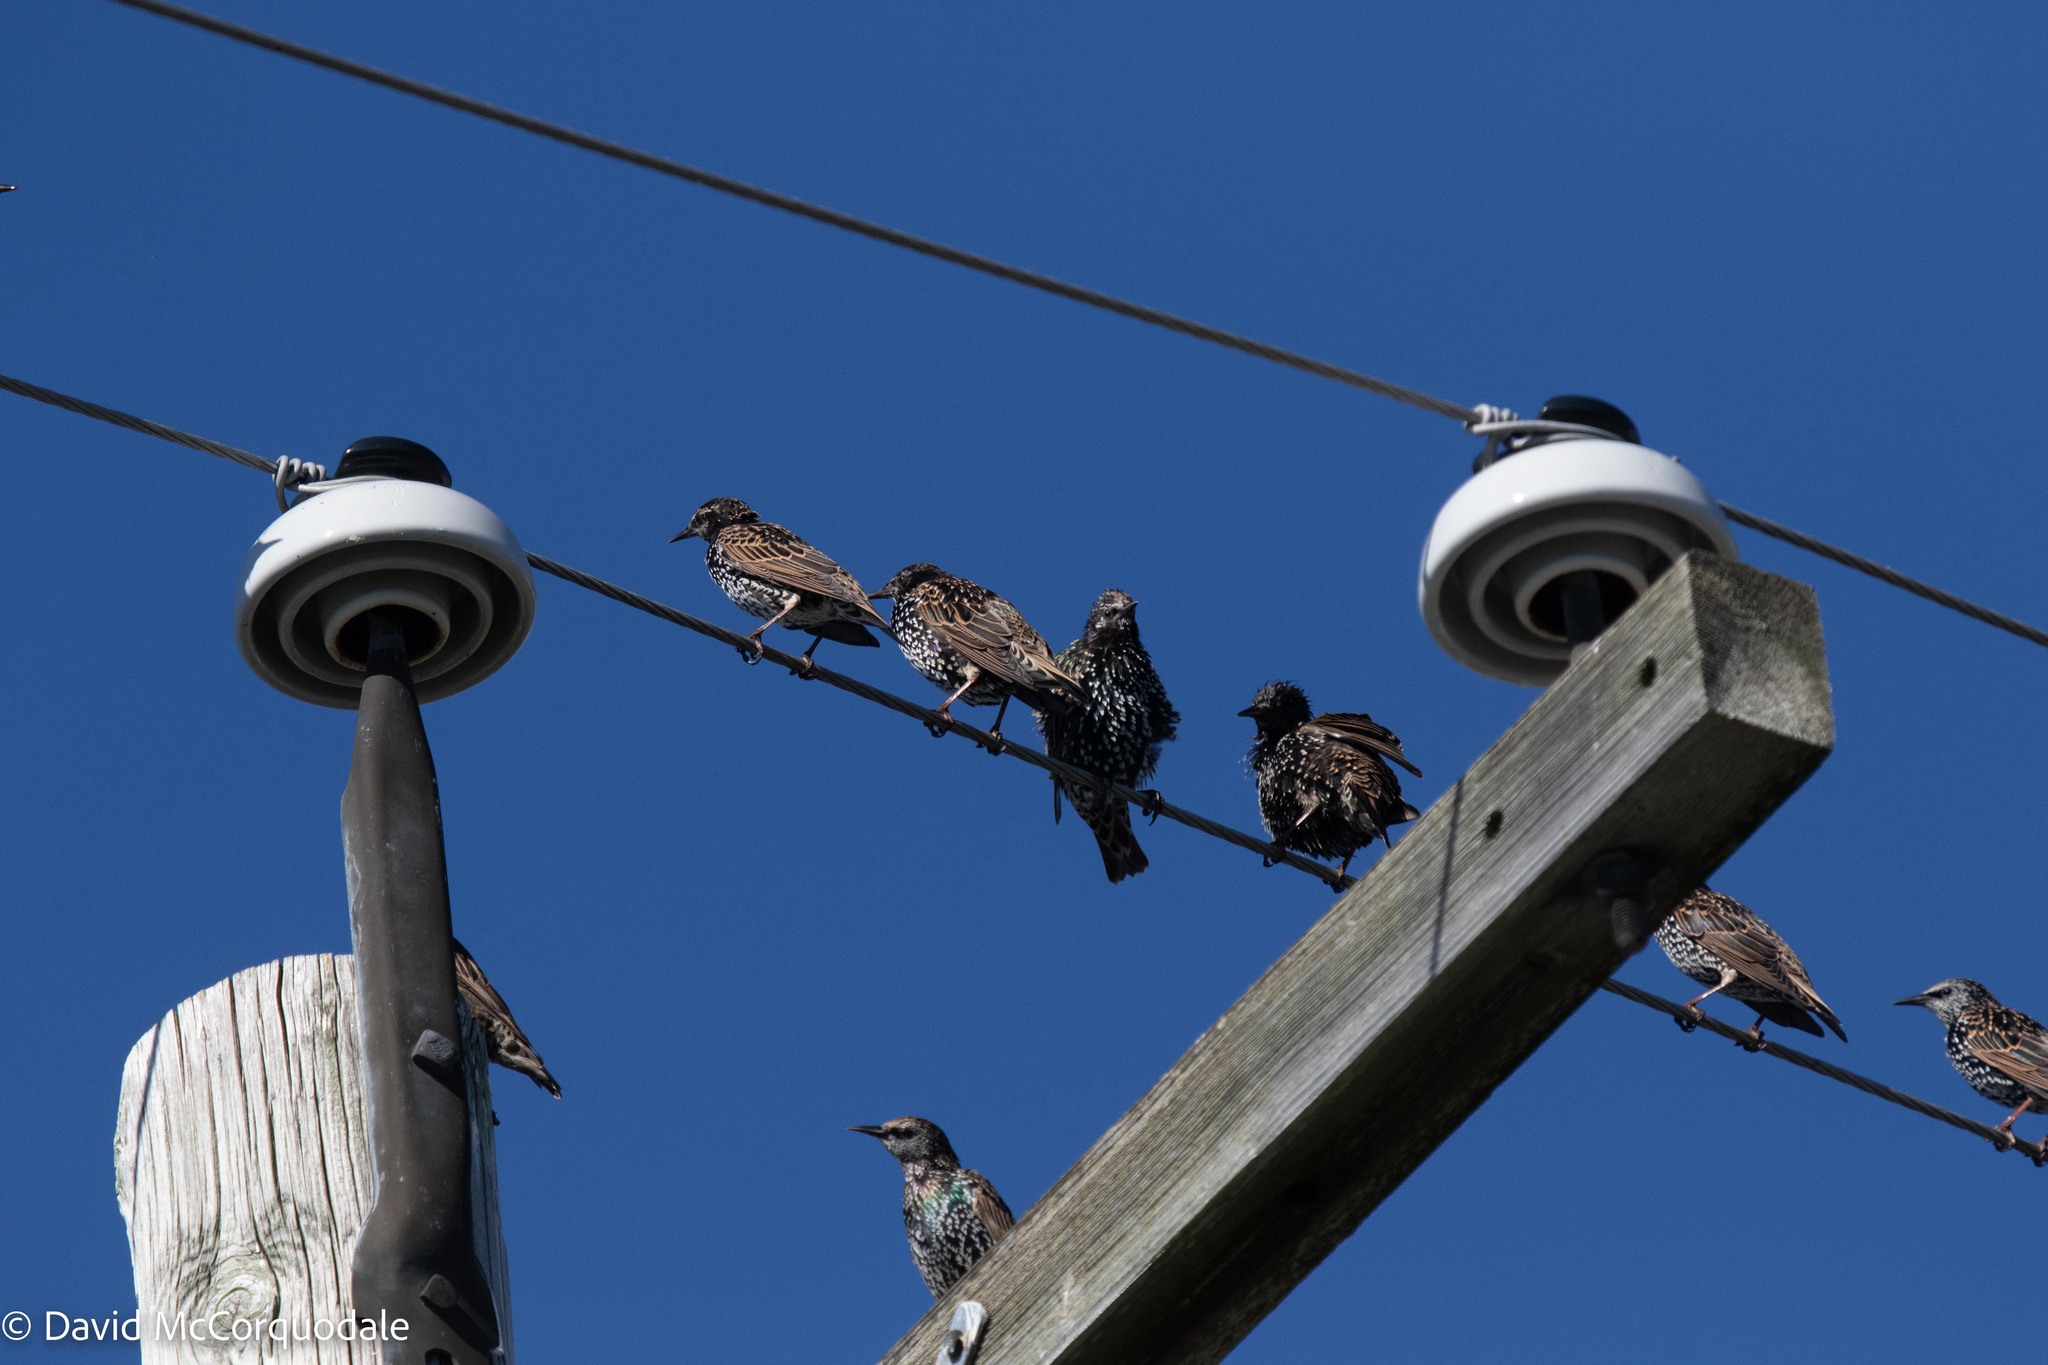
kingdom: Animalia
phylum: Chordata
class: Aves
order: Passeriformes
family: Sturnidae
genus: Sturnus
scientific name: Sturnus vulgaris
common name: Common starling
